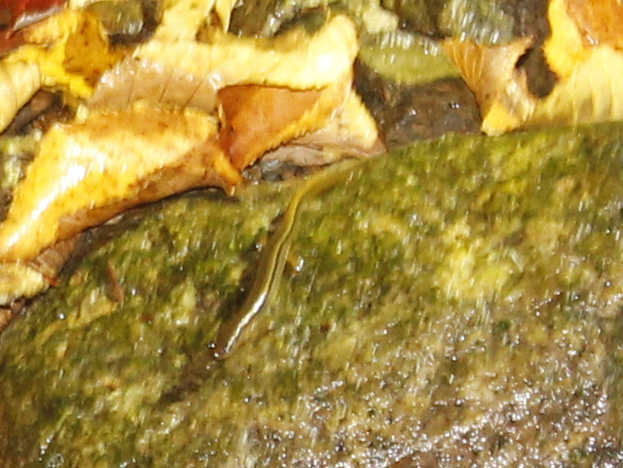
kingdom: Animalia
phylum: Chordata
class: Amphibia
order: Caudata
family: Plethodontidae
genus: Eurycea
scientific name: Eurycea bislineata
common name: Northern two-lined salamander
